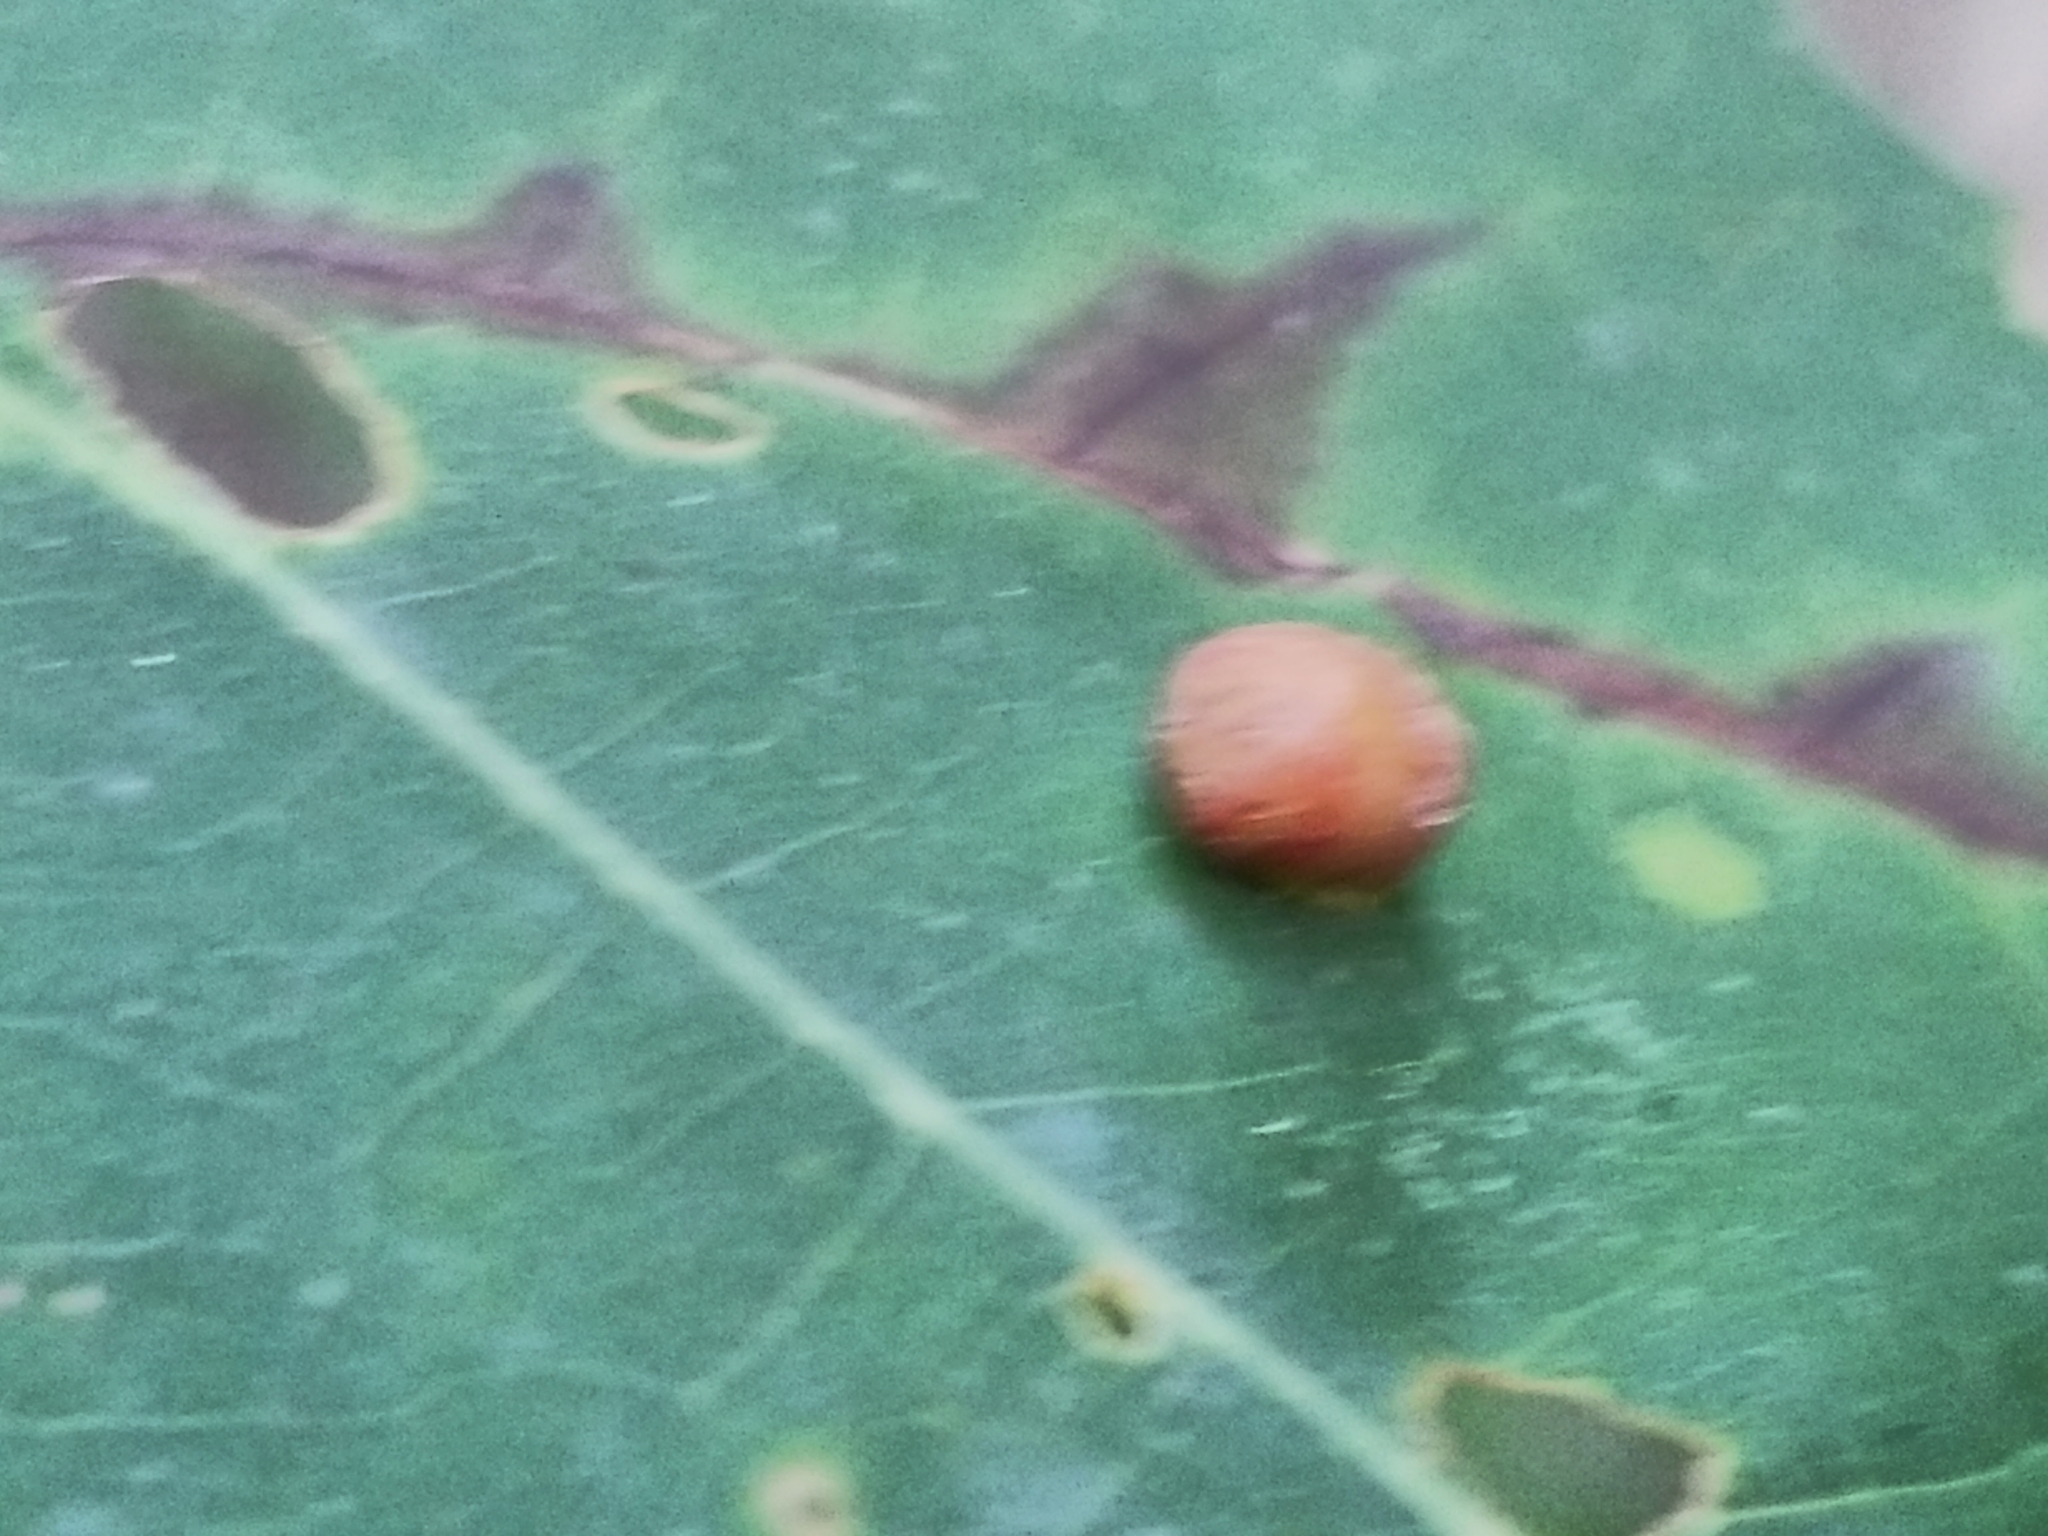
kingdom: Animalia
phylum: Arthropoda
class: Insecta
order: Diptera
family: Cecidomyiidae
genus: Polystepha
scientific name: Polystepha pilulae
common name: Oak leaf gall midge
